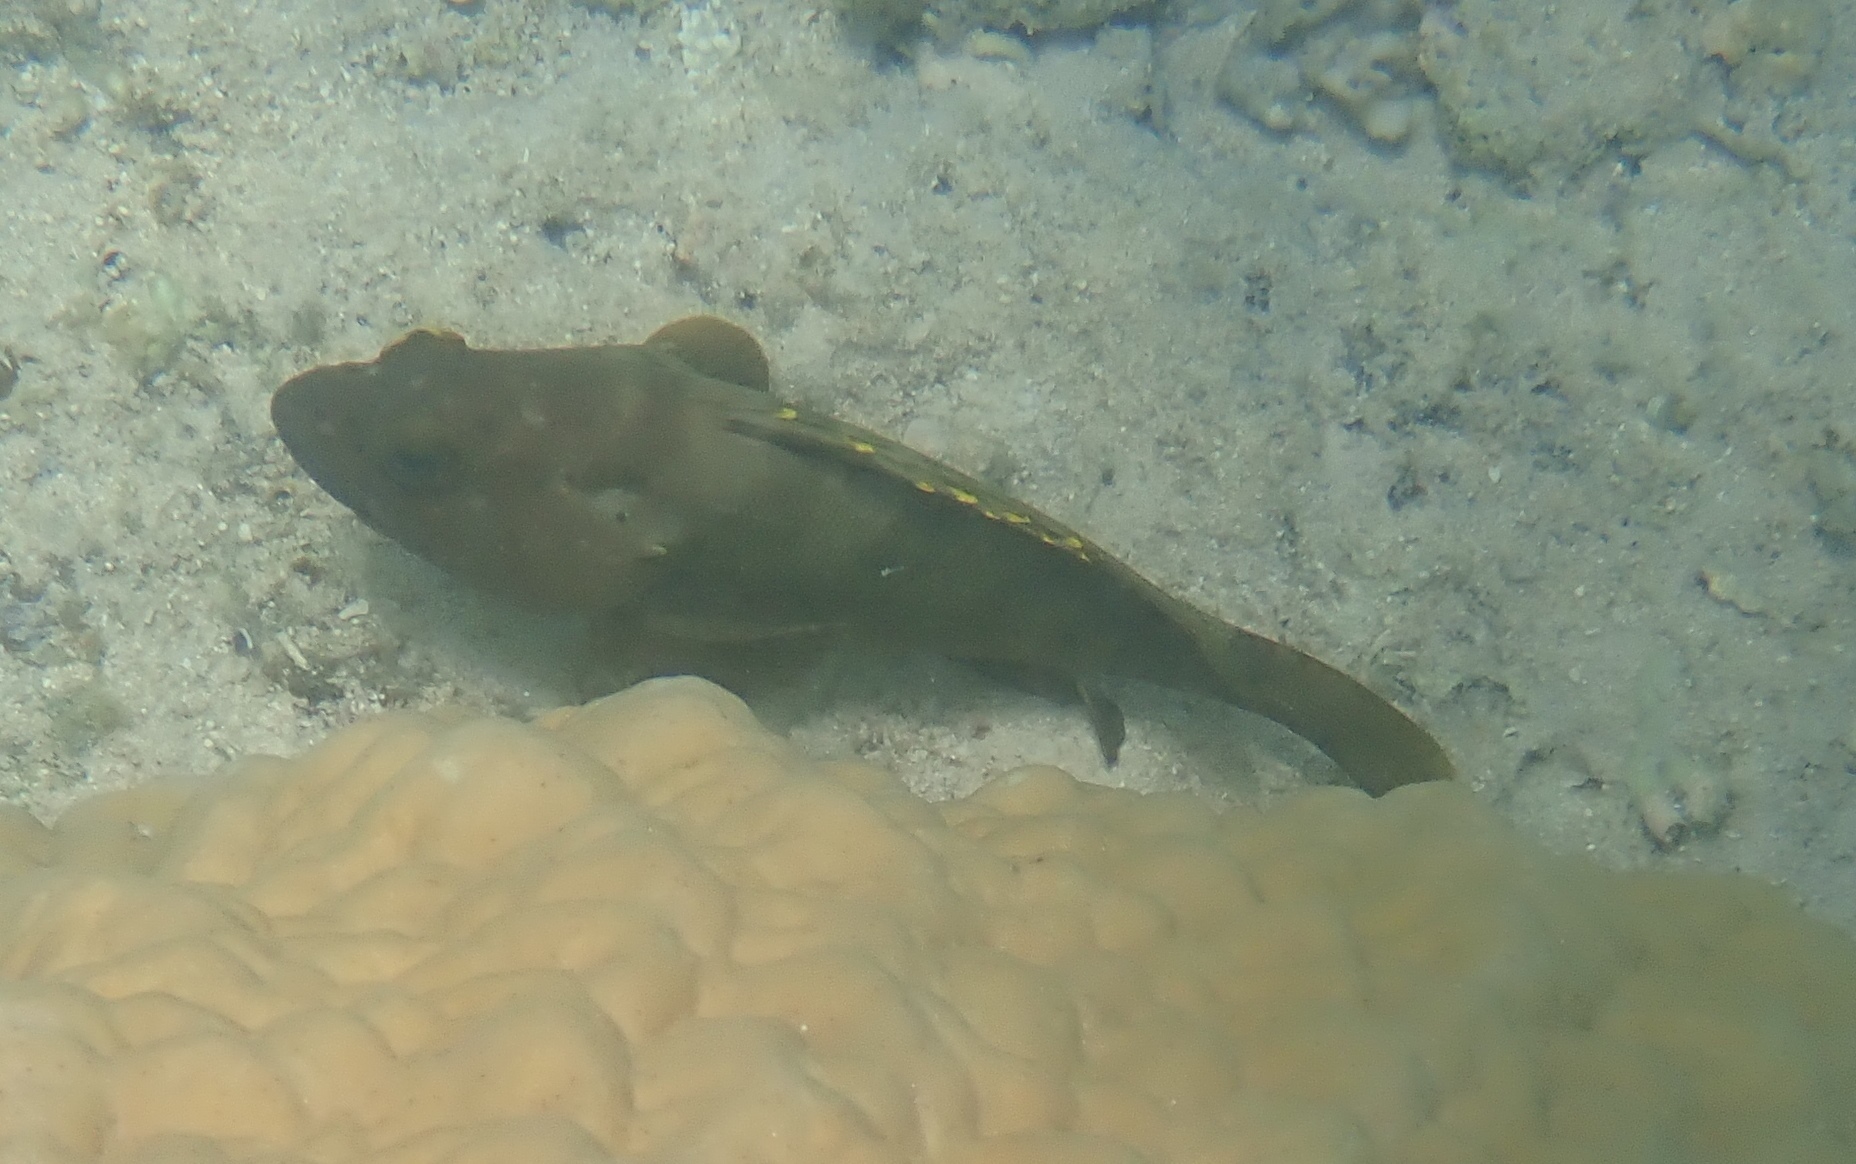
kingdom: Animalia
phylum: Chordata
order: Perciformes
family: Serranidae
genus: Epinephelus
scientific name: Epinephelus rivulatus
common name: Halfmoon grouper
